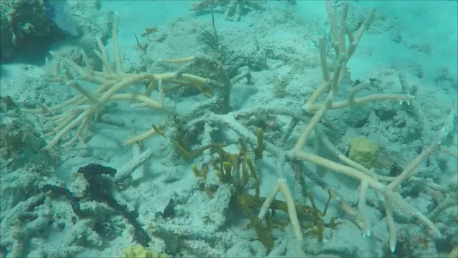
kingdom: Animalia
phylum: Cnidaria
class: Anthozoa
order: Scleractinia
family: Acroporidae
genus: Acropora
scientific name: Acropora cervicornis
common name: Staghorn coral
